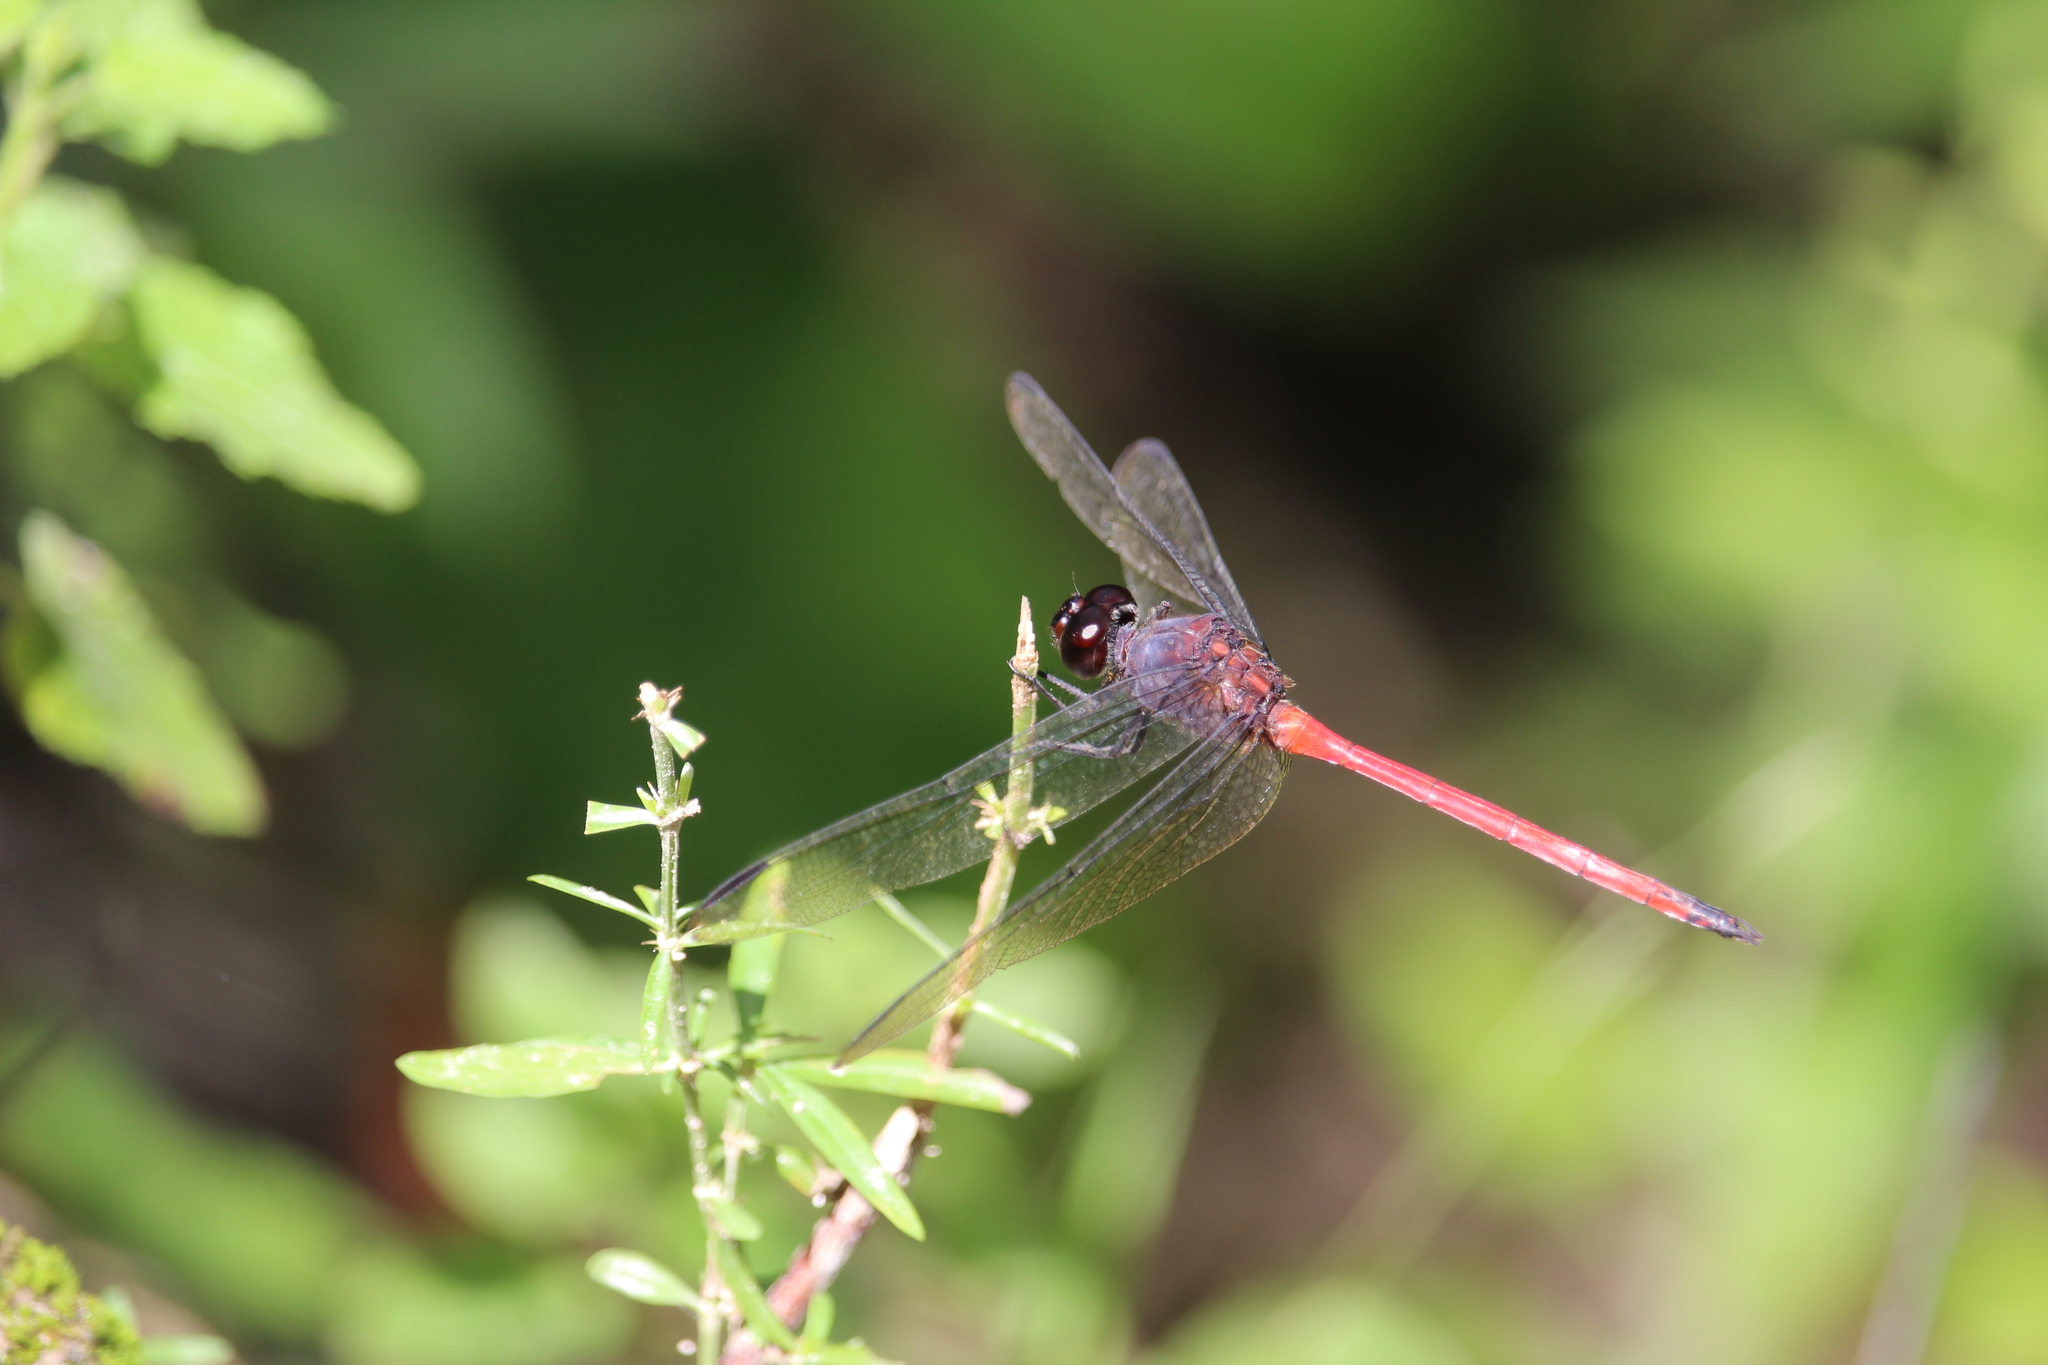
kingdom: Animalia
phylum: Arthropoda
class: Insecta
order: Odonata
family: Libellulidae
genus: Orthemis
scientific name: Orthemis levis
